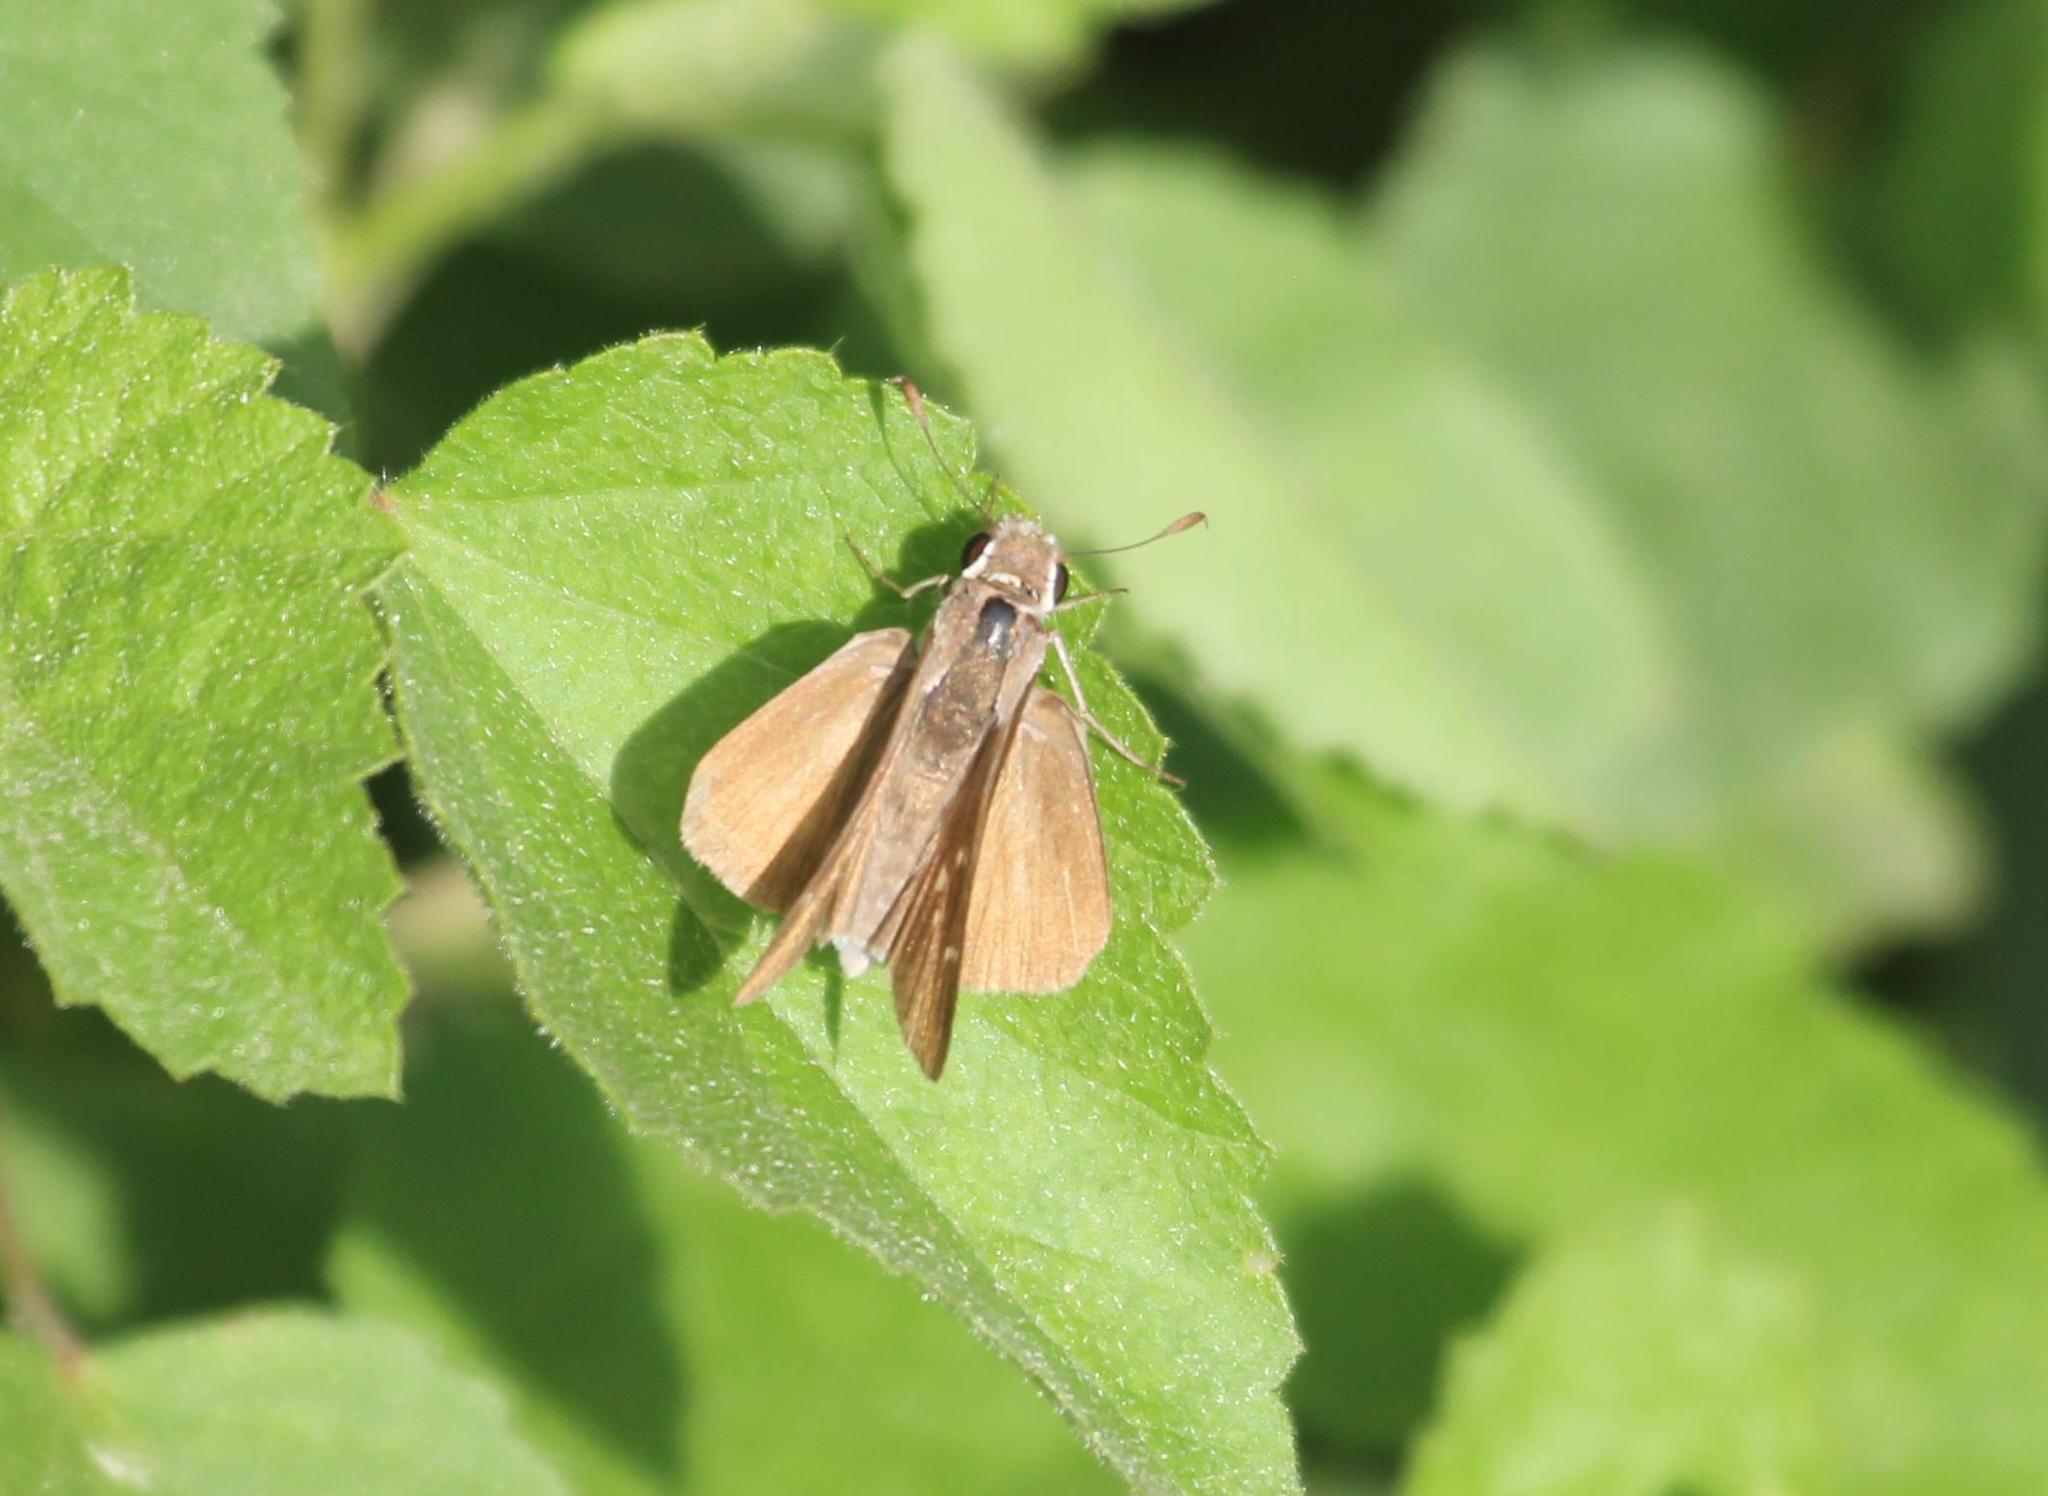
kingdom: Animalia
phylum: Arthropoda
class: Insecta
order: Lepidoptera
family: Hesperiidae
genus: Lerodea
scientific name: Lerodea eufala
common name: Eufala skipper
